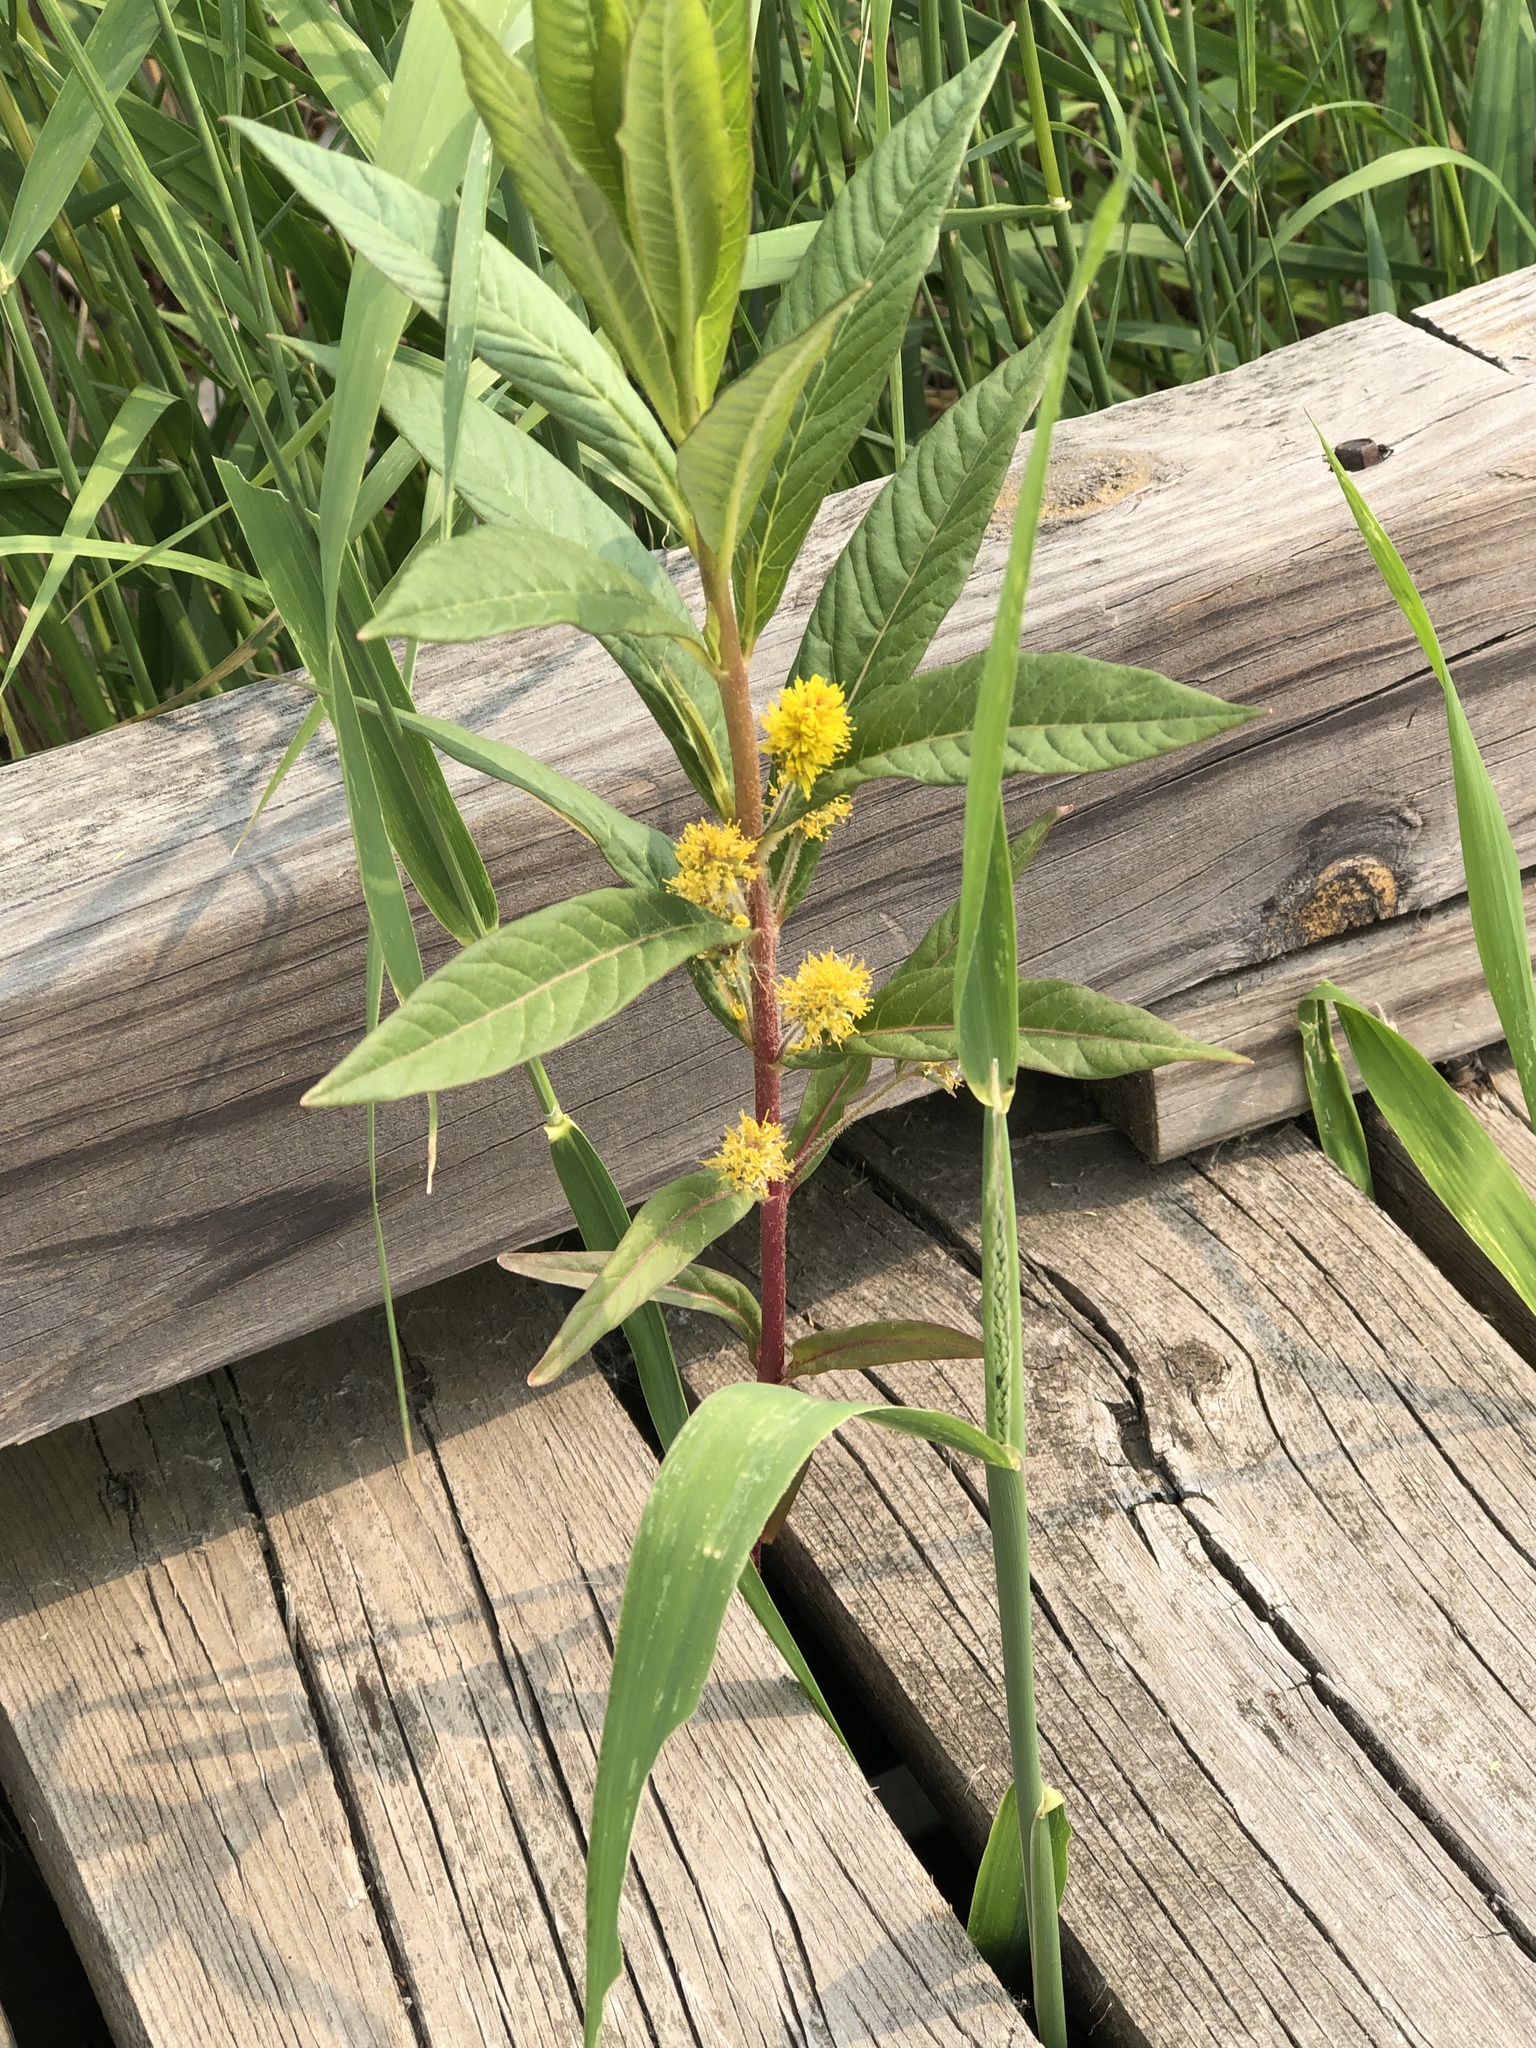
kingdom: Plantae
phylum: Tracheophyta
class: Magnoliopsida
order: Ericales
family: Primulaceae
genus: Lysimachia
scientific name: Lysimachia thyrsiflora
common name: Tufted loosestrife
